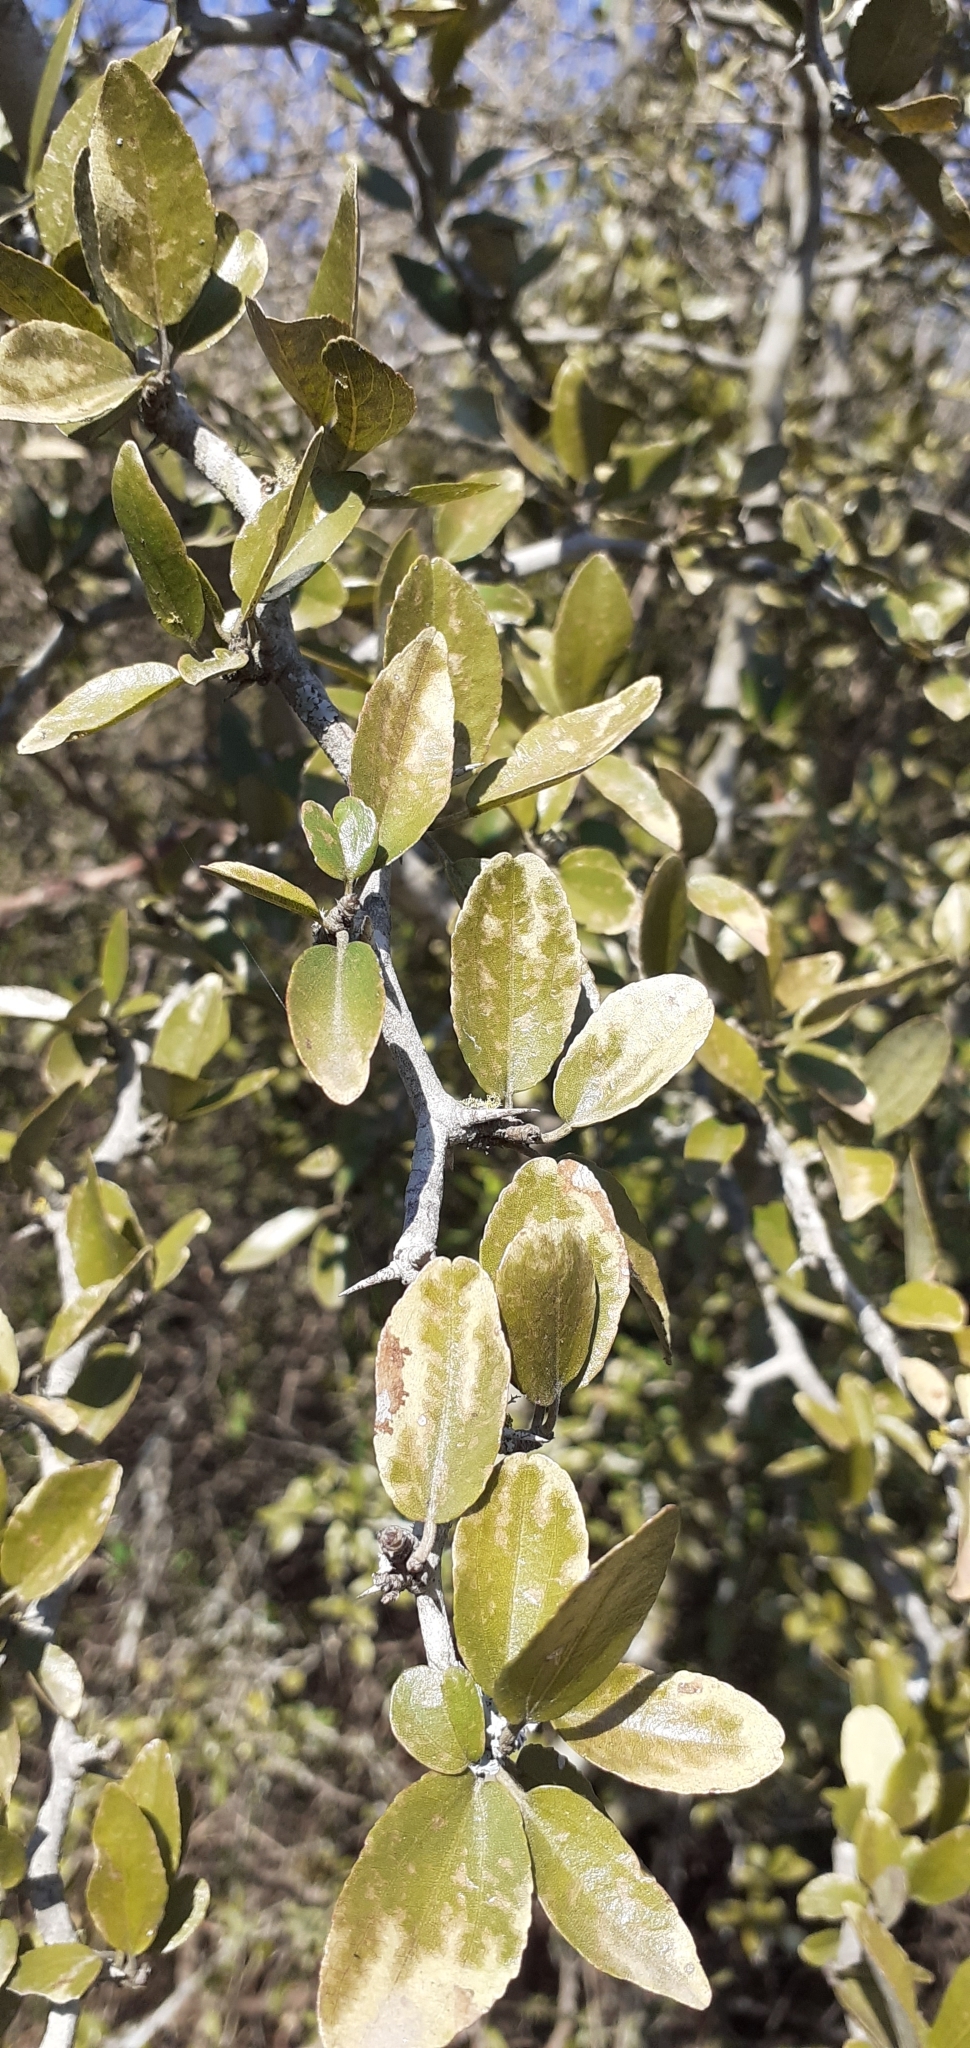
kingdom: Plantae
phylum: Tracheophyta
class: Magnoliopsida
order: Rosales
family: Rhamnaceae
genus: Sarcomphalus
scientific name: Sarcomphalus mistol
